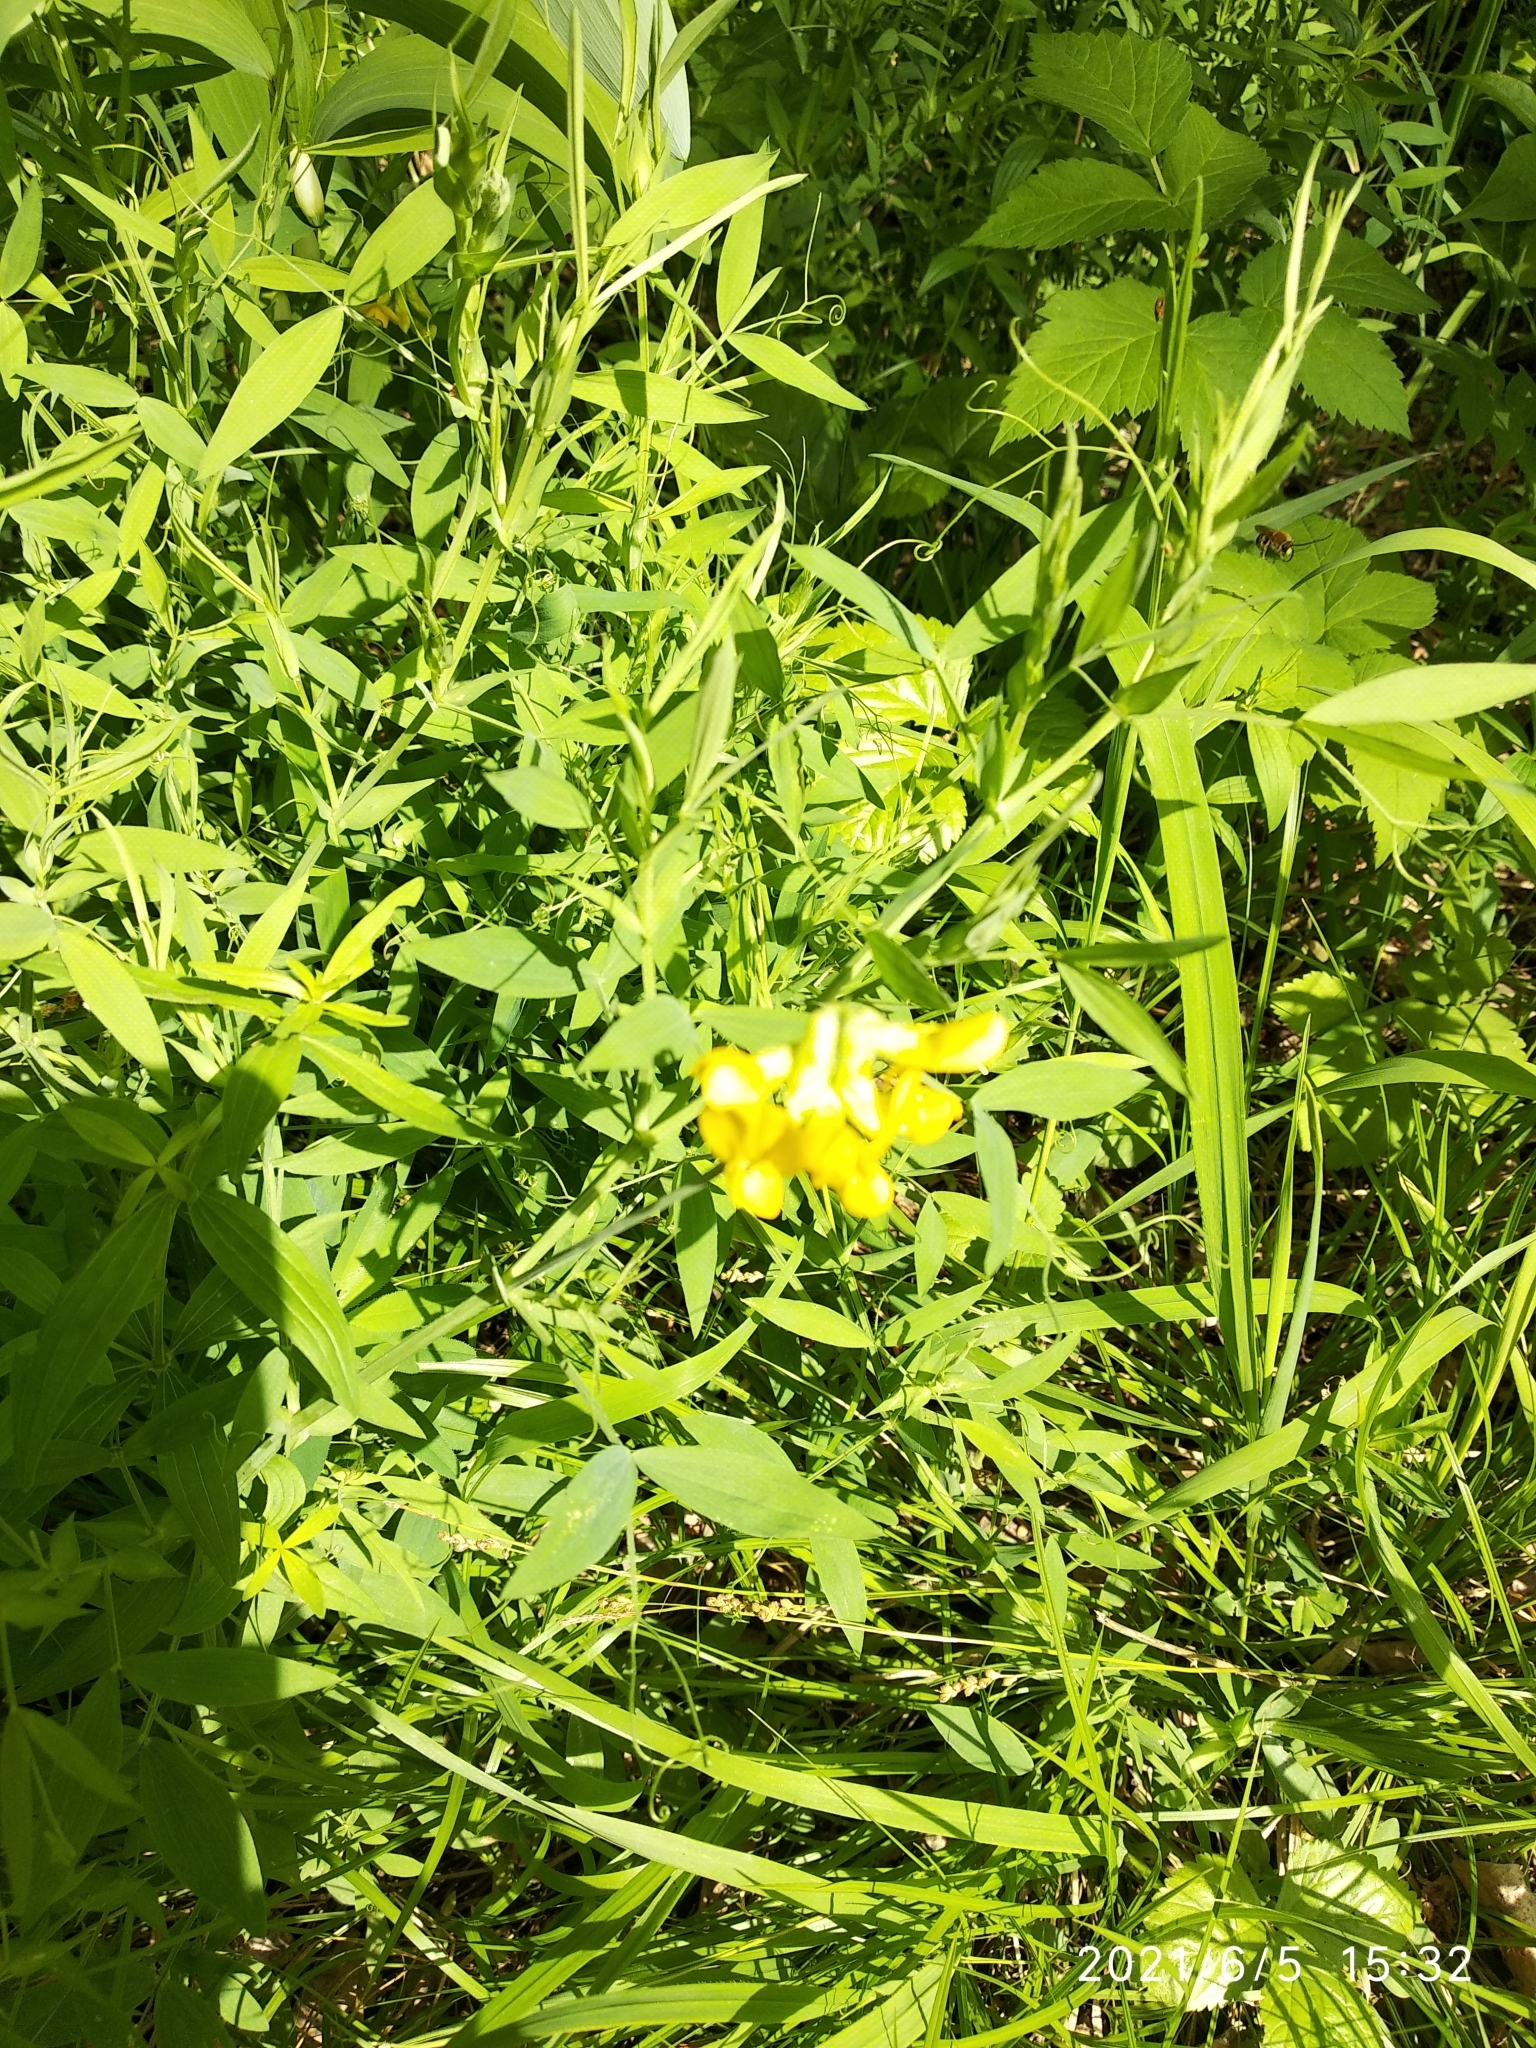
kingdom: Plantae
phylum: Tracheophyta
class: Magnoliopsida
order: Fabales
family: Fabaceae
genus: Lathyrus
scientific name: Lathyrus pratensis
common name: Meadow vetchling
